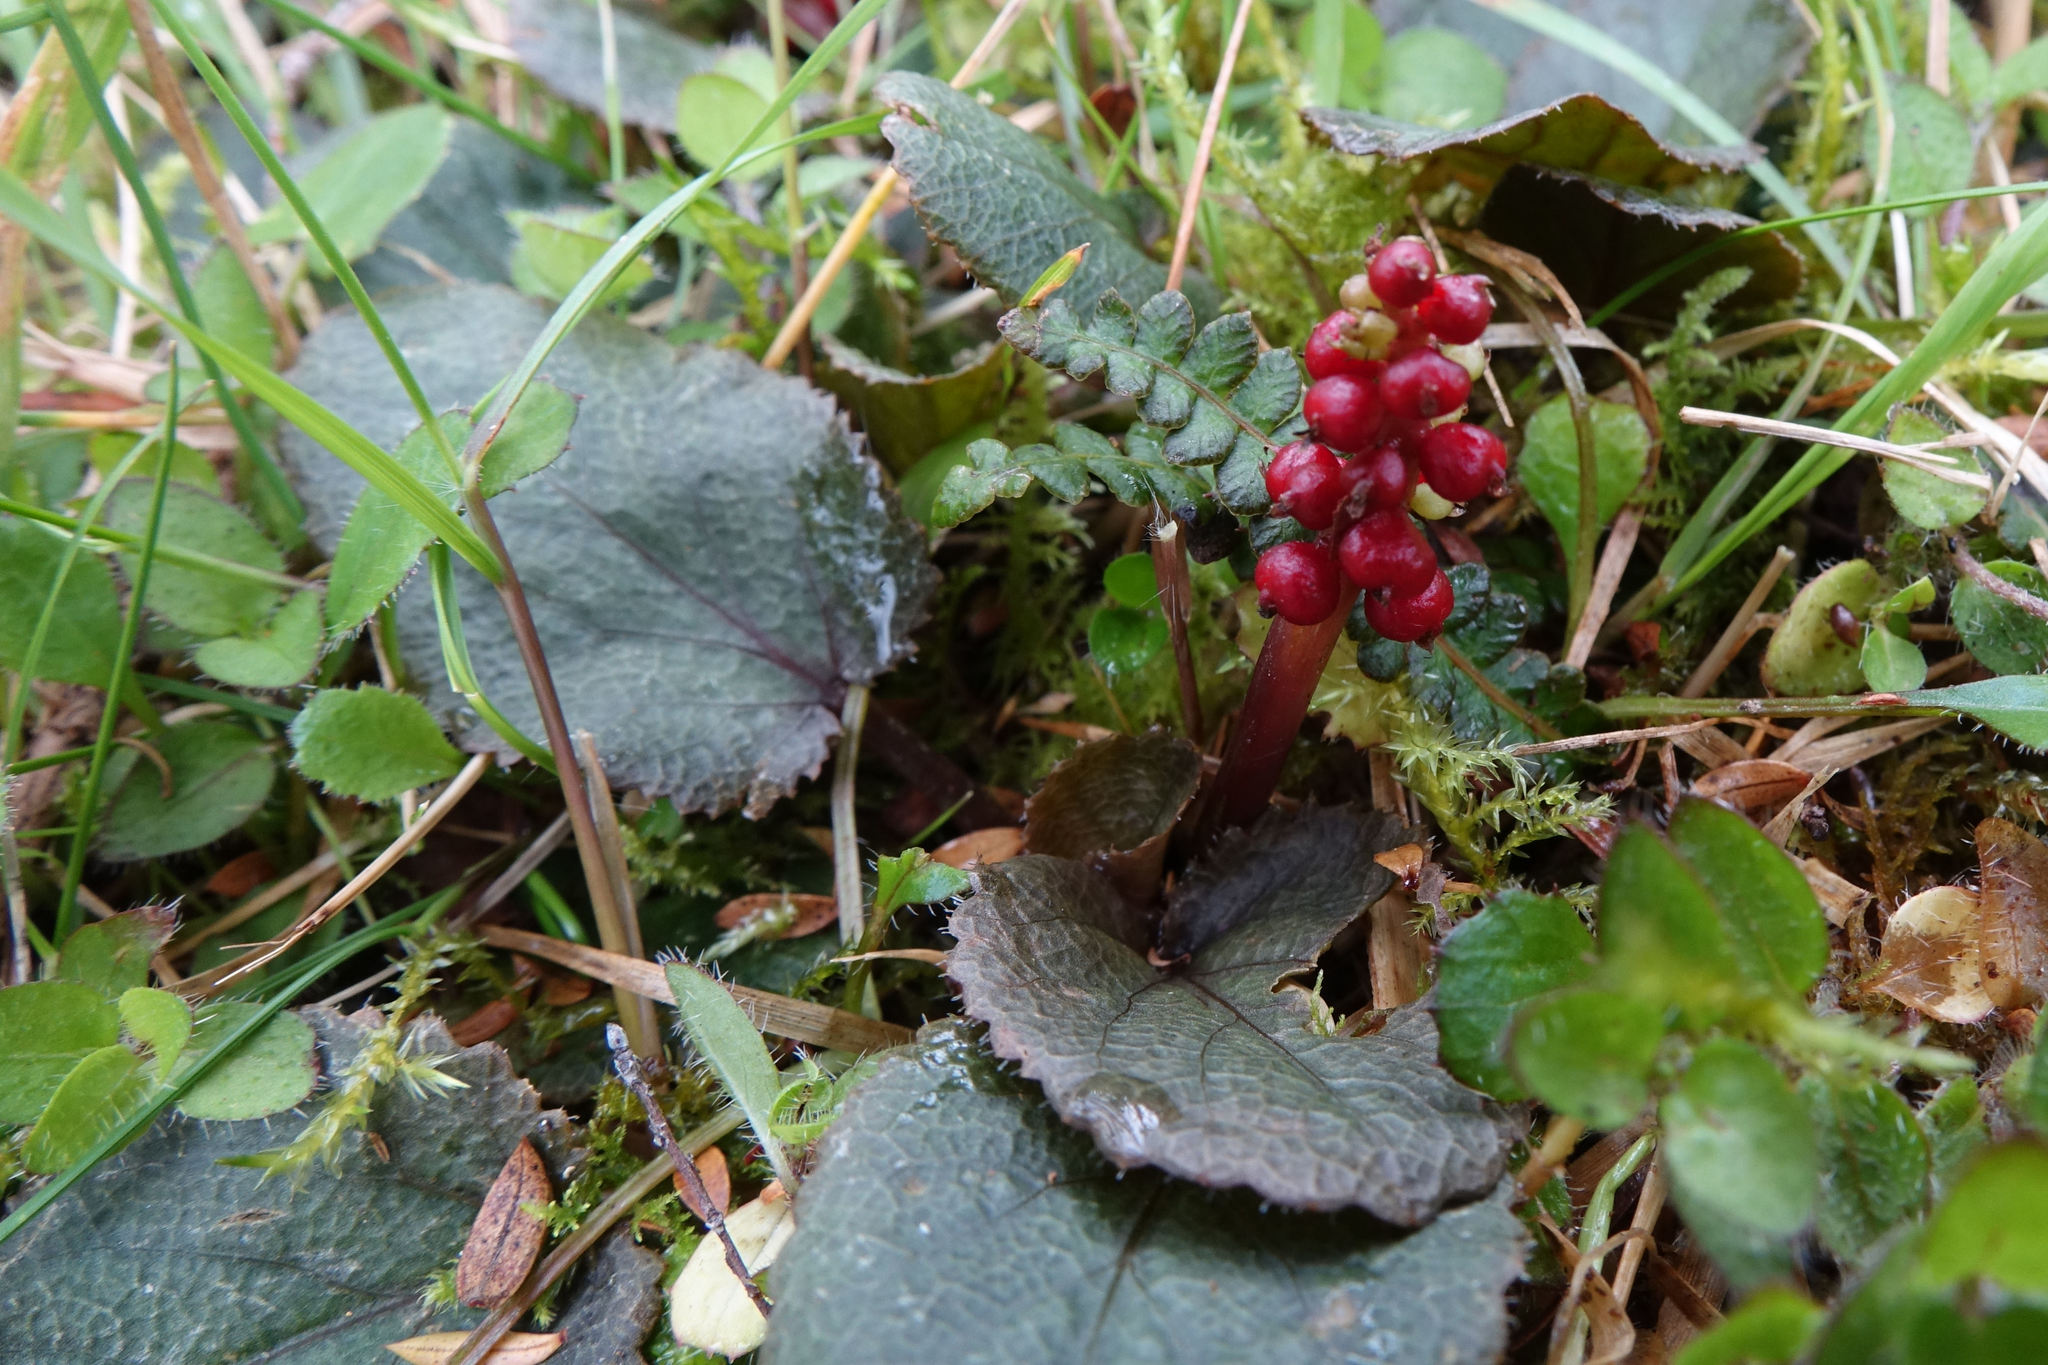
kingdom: Plantae
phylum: Tracheophyta
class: Magnoliopsida
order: Gunnerales
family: Gunneraceae
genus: Gunnera
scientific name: Gunnera prorepens
